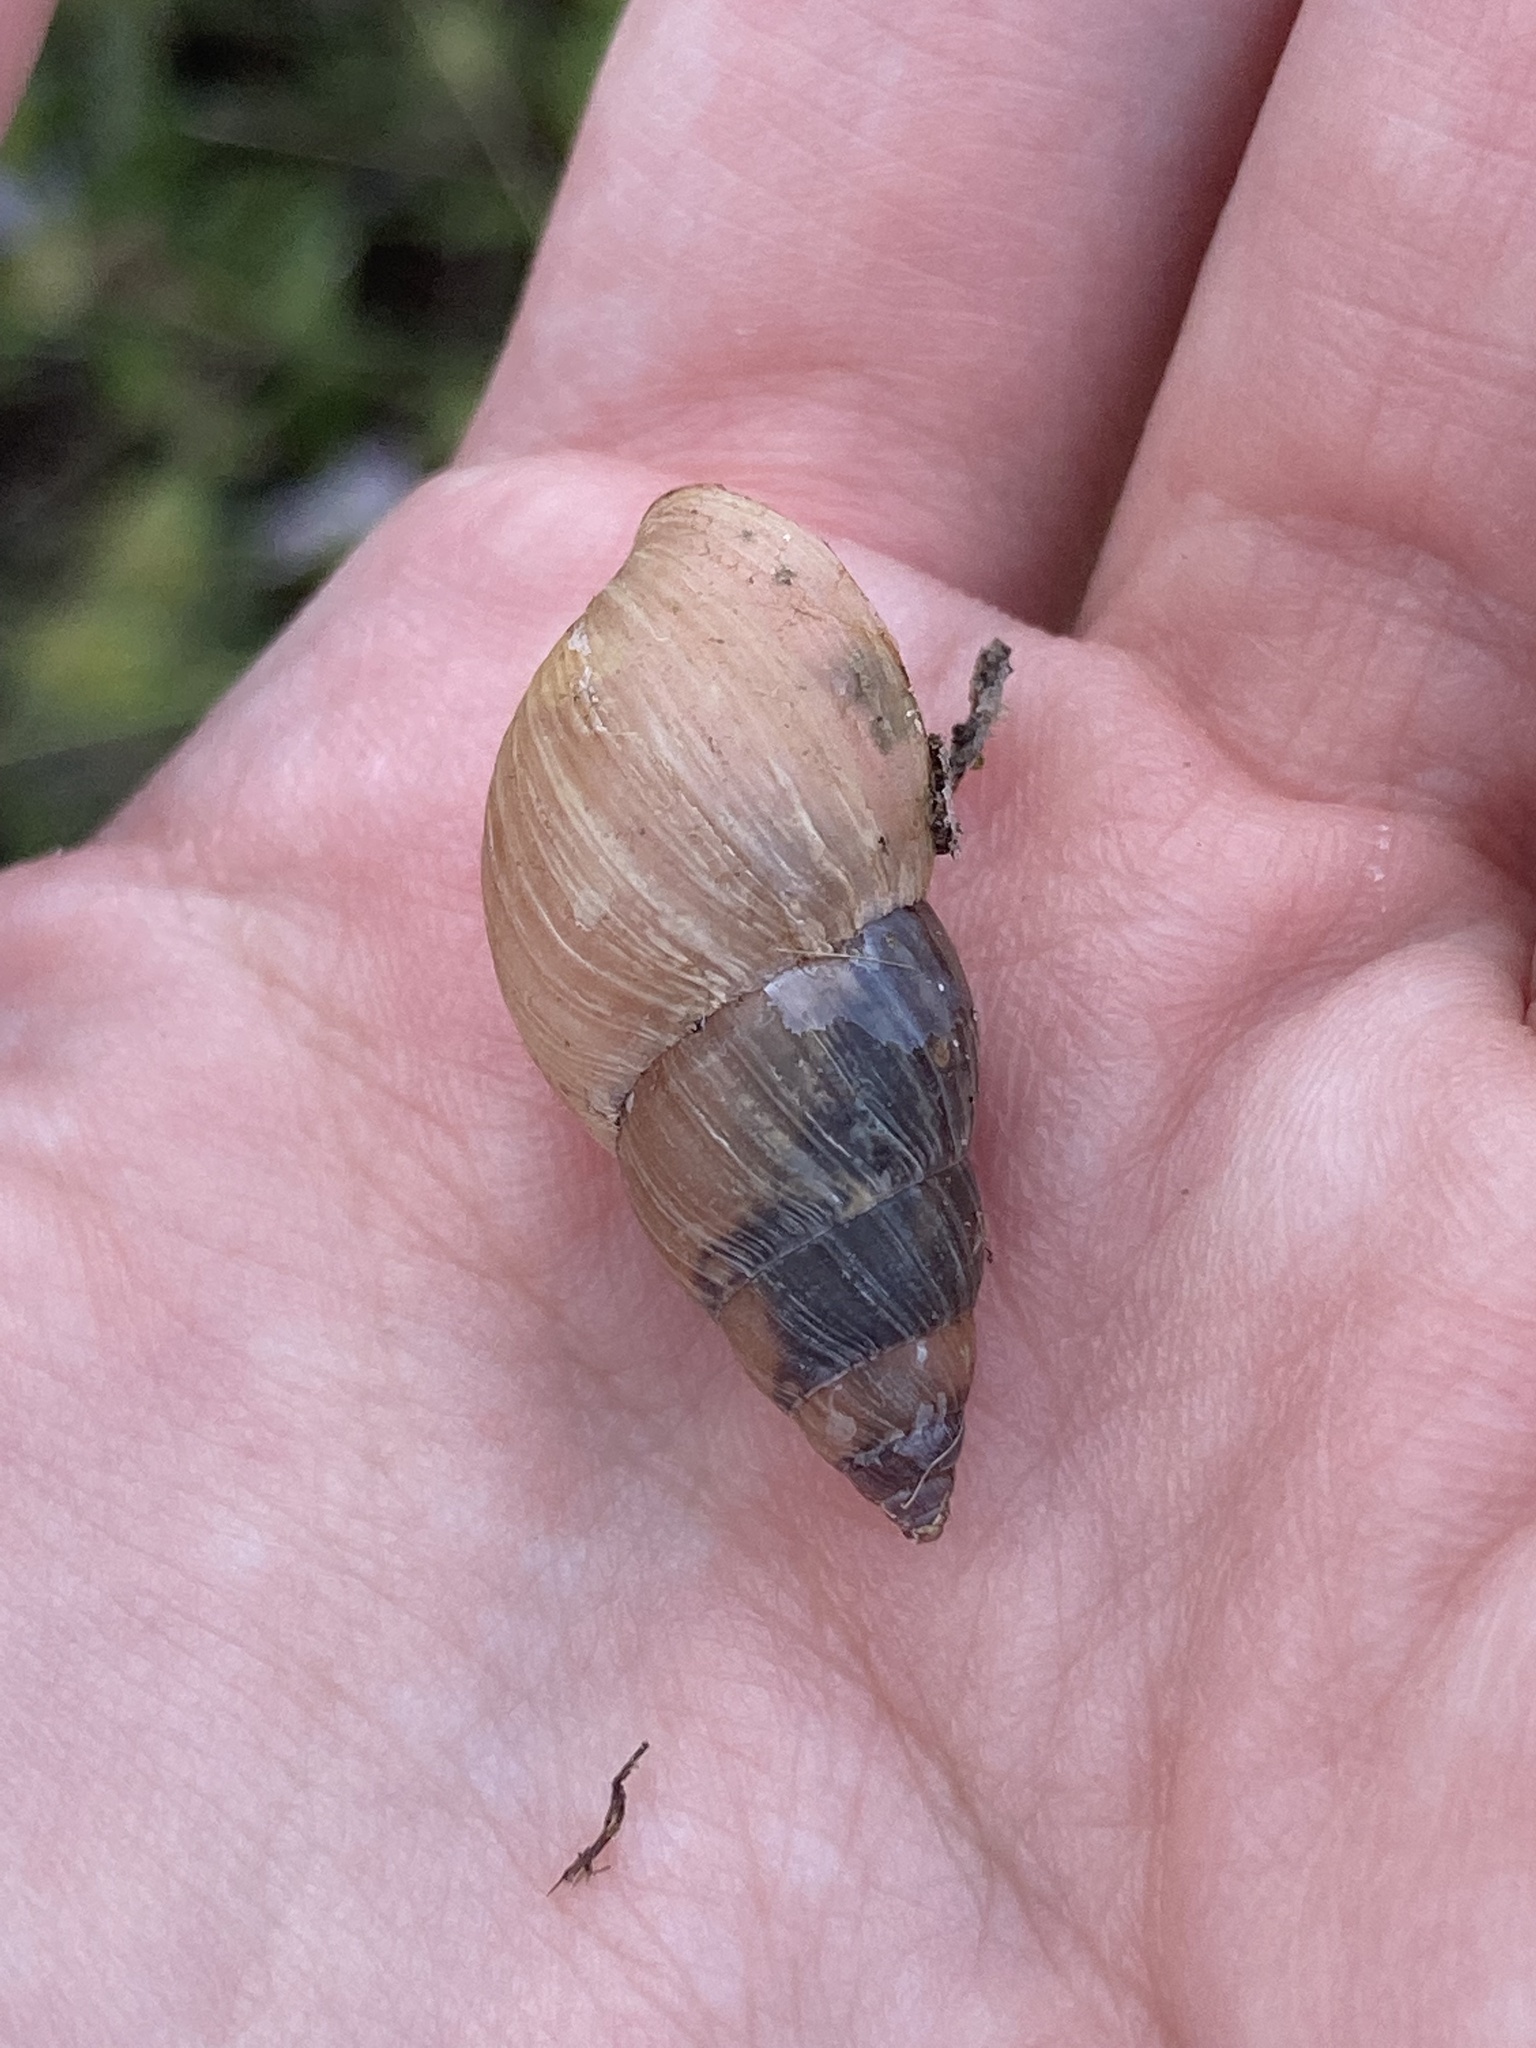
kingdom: Animalia
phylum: Mollusca
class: Gastropoda
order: Stylommatophora
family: Bulimulidae
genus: Bulimulus
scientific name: Bulimulus bonariensis
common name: Snail
